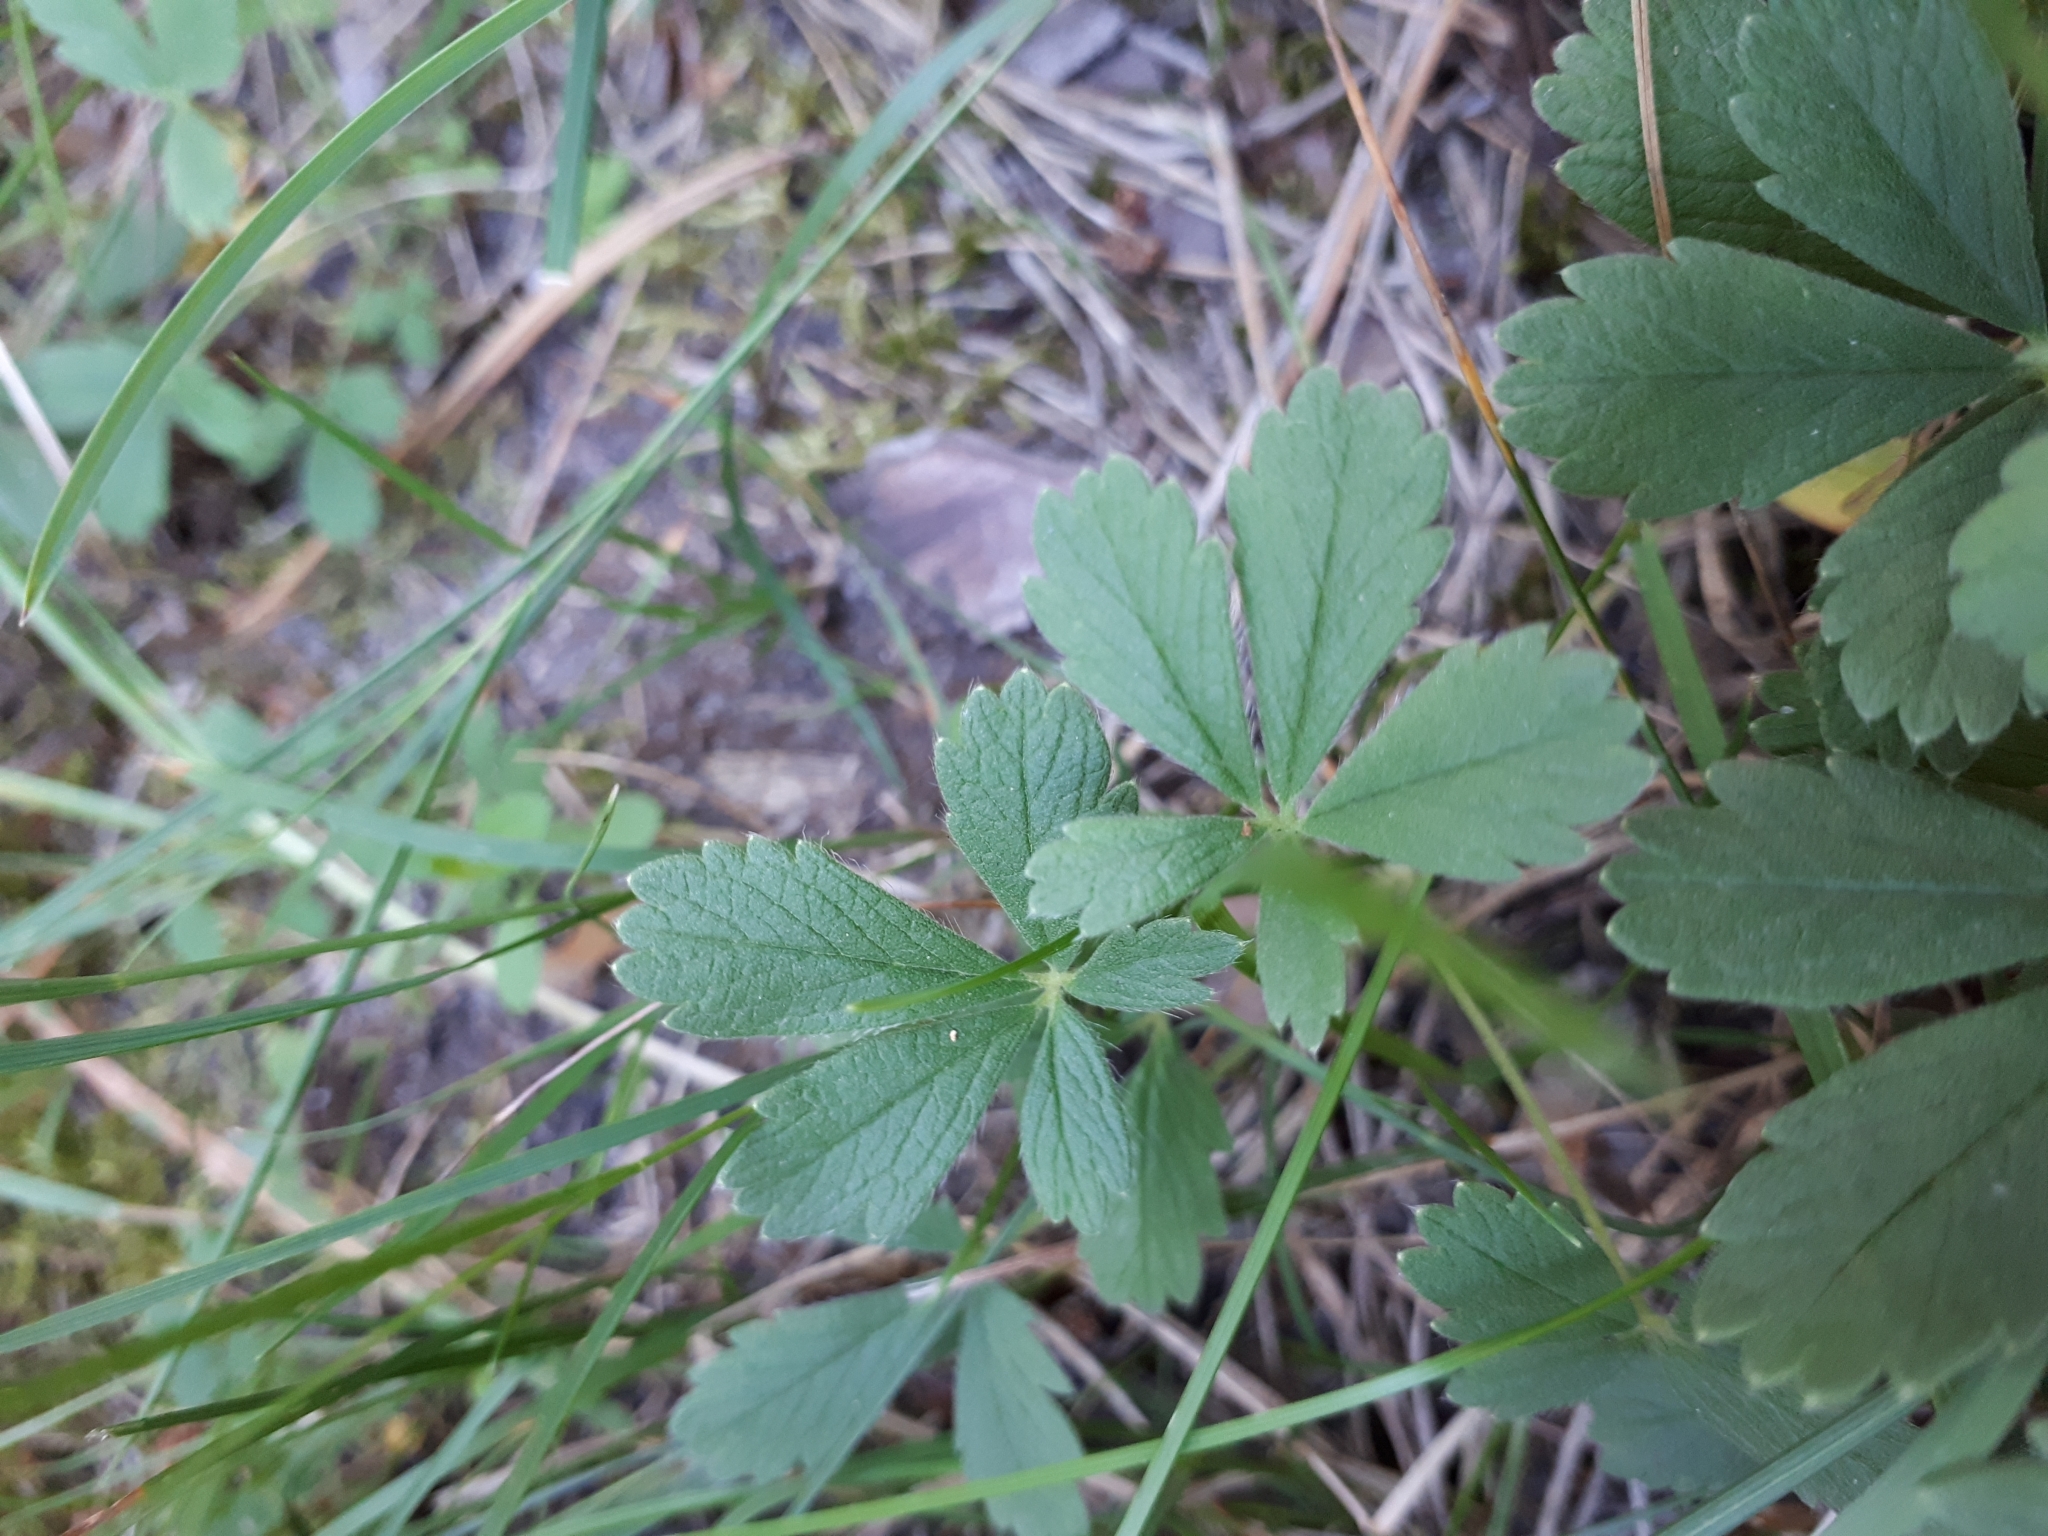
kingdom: Plantae
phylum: Tracheophyta
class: Magnoliopsida
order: Rosales
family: Rosaceae
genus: Potentilla
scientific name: Potentilla incana
